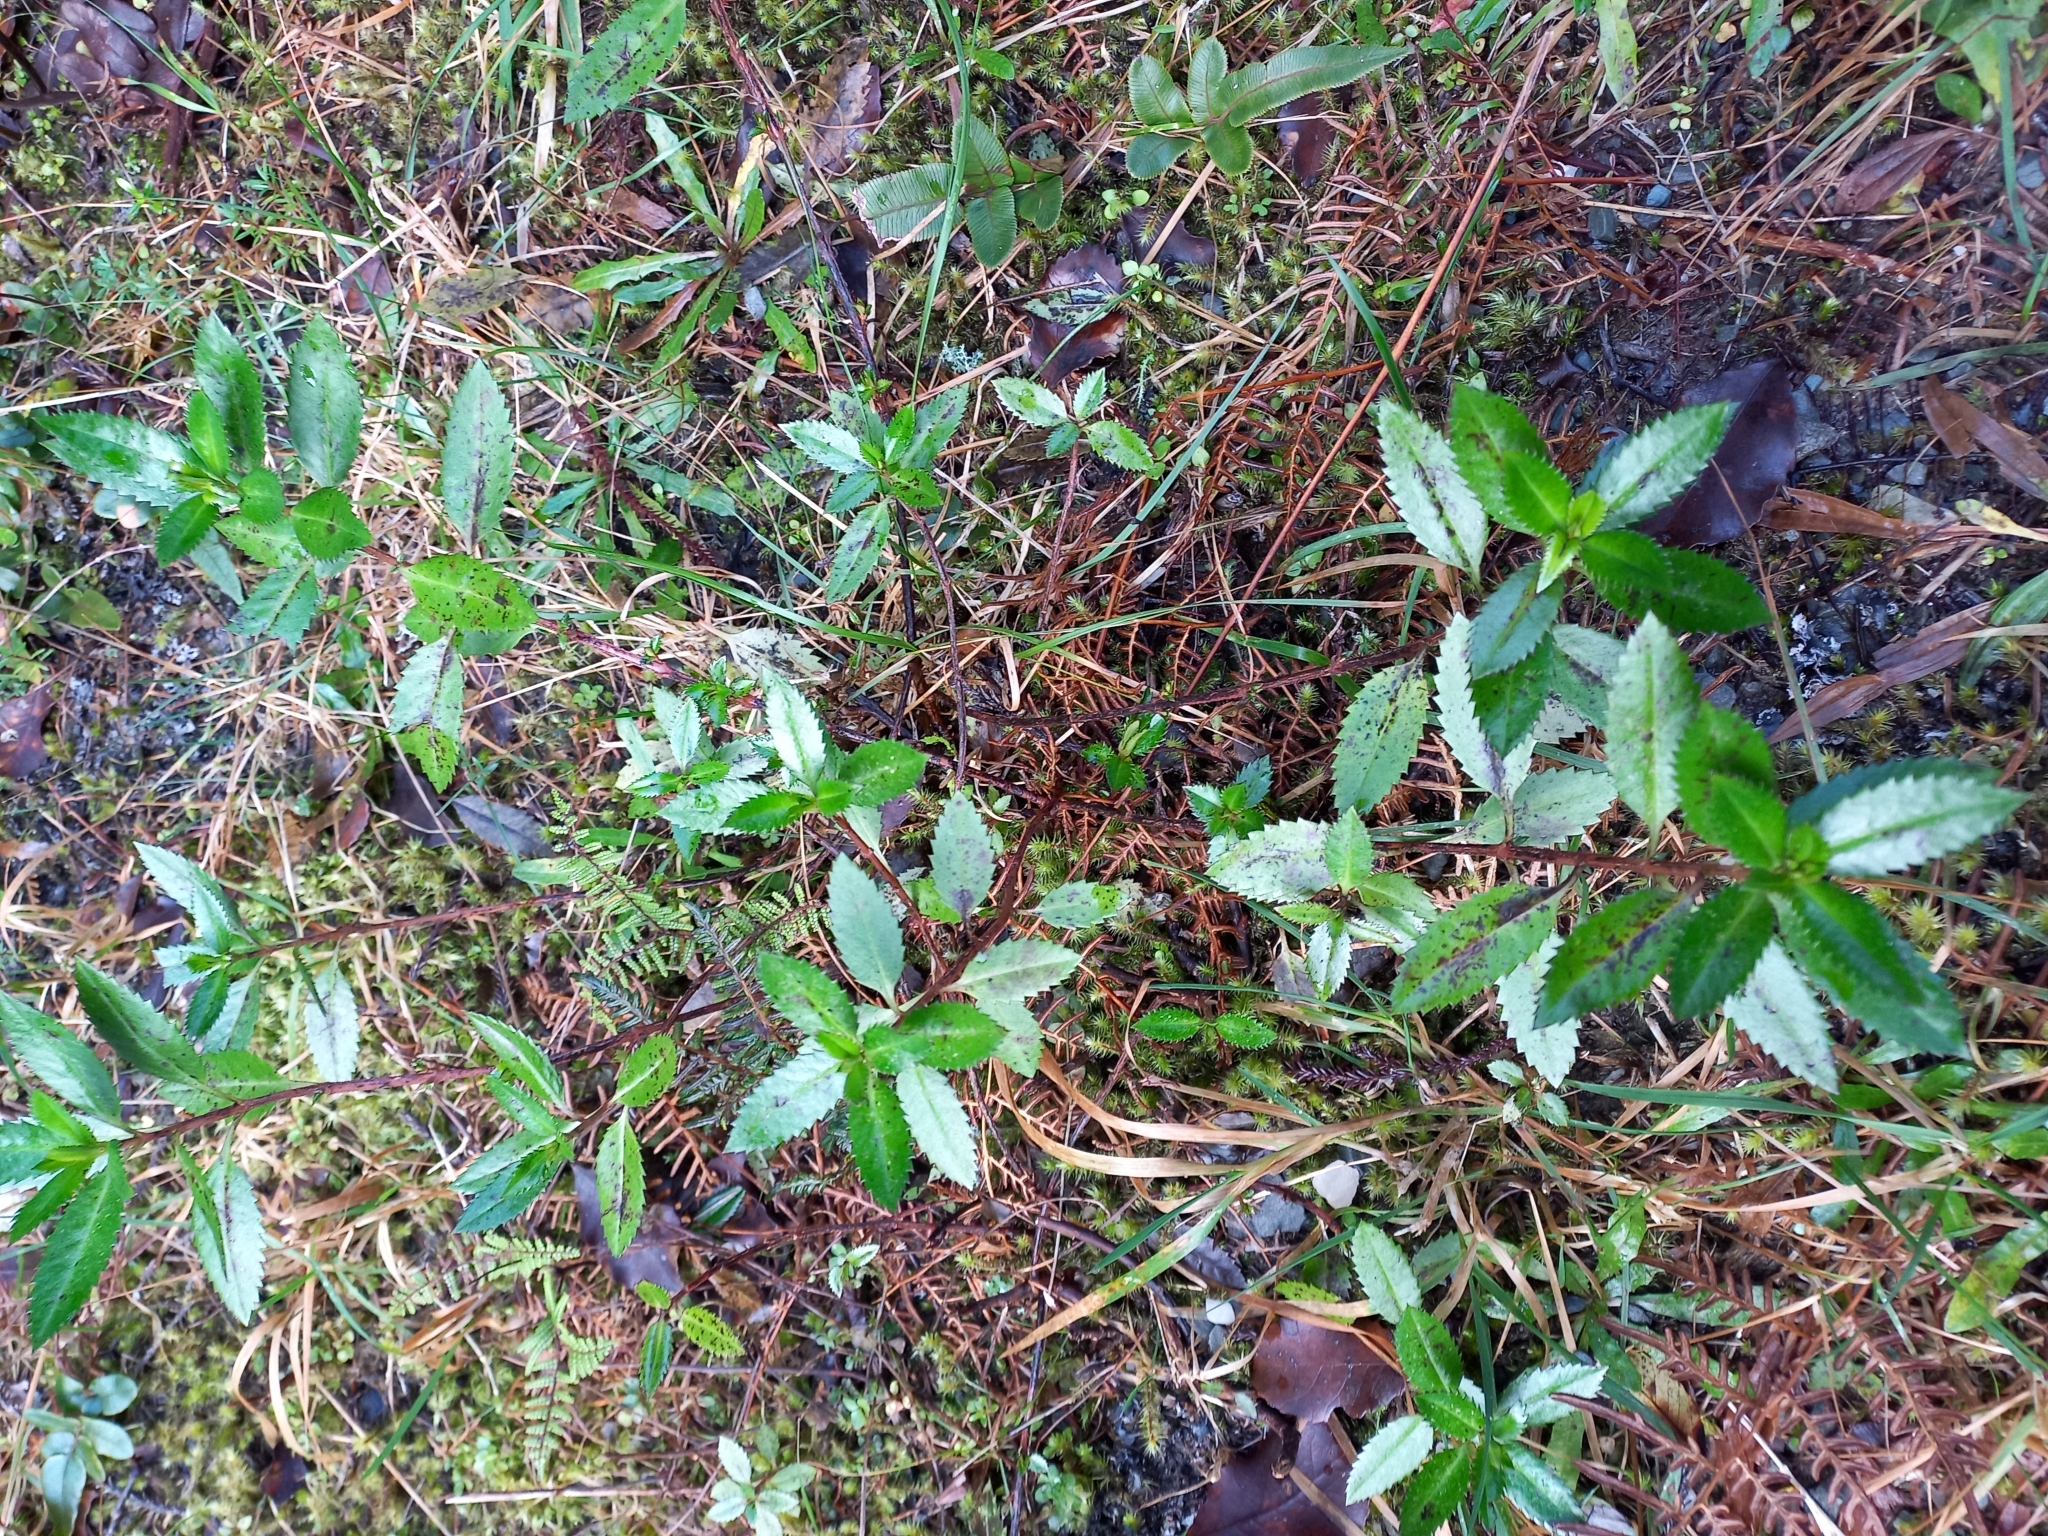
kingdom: Plantae
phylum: Tracheophyta
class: Magnoliopsida
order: Saxifragales
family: Haloragaceae
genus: Haloragis
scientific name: Haloragis erecta
